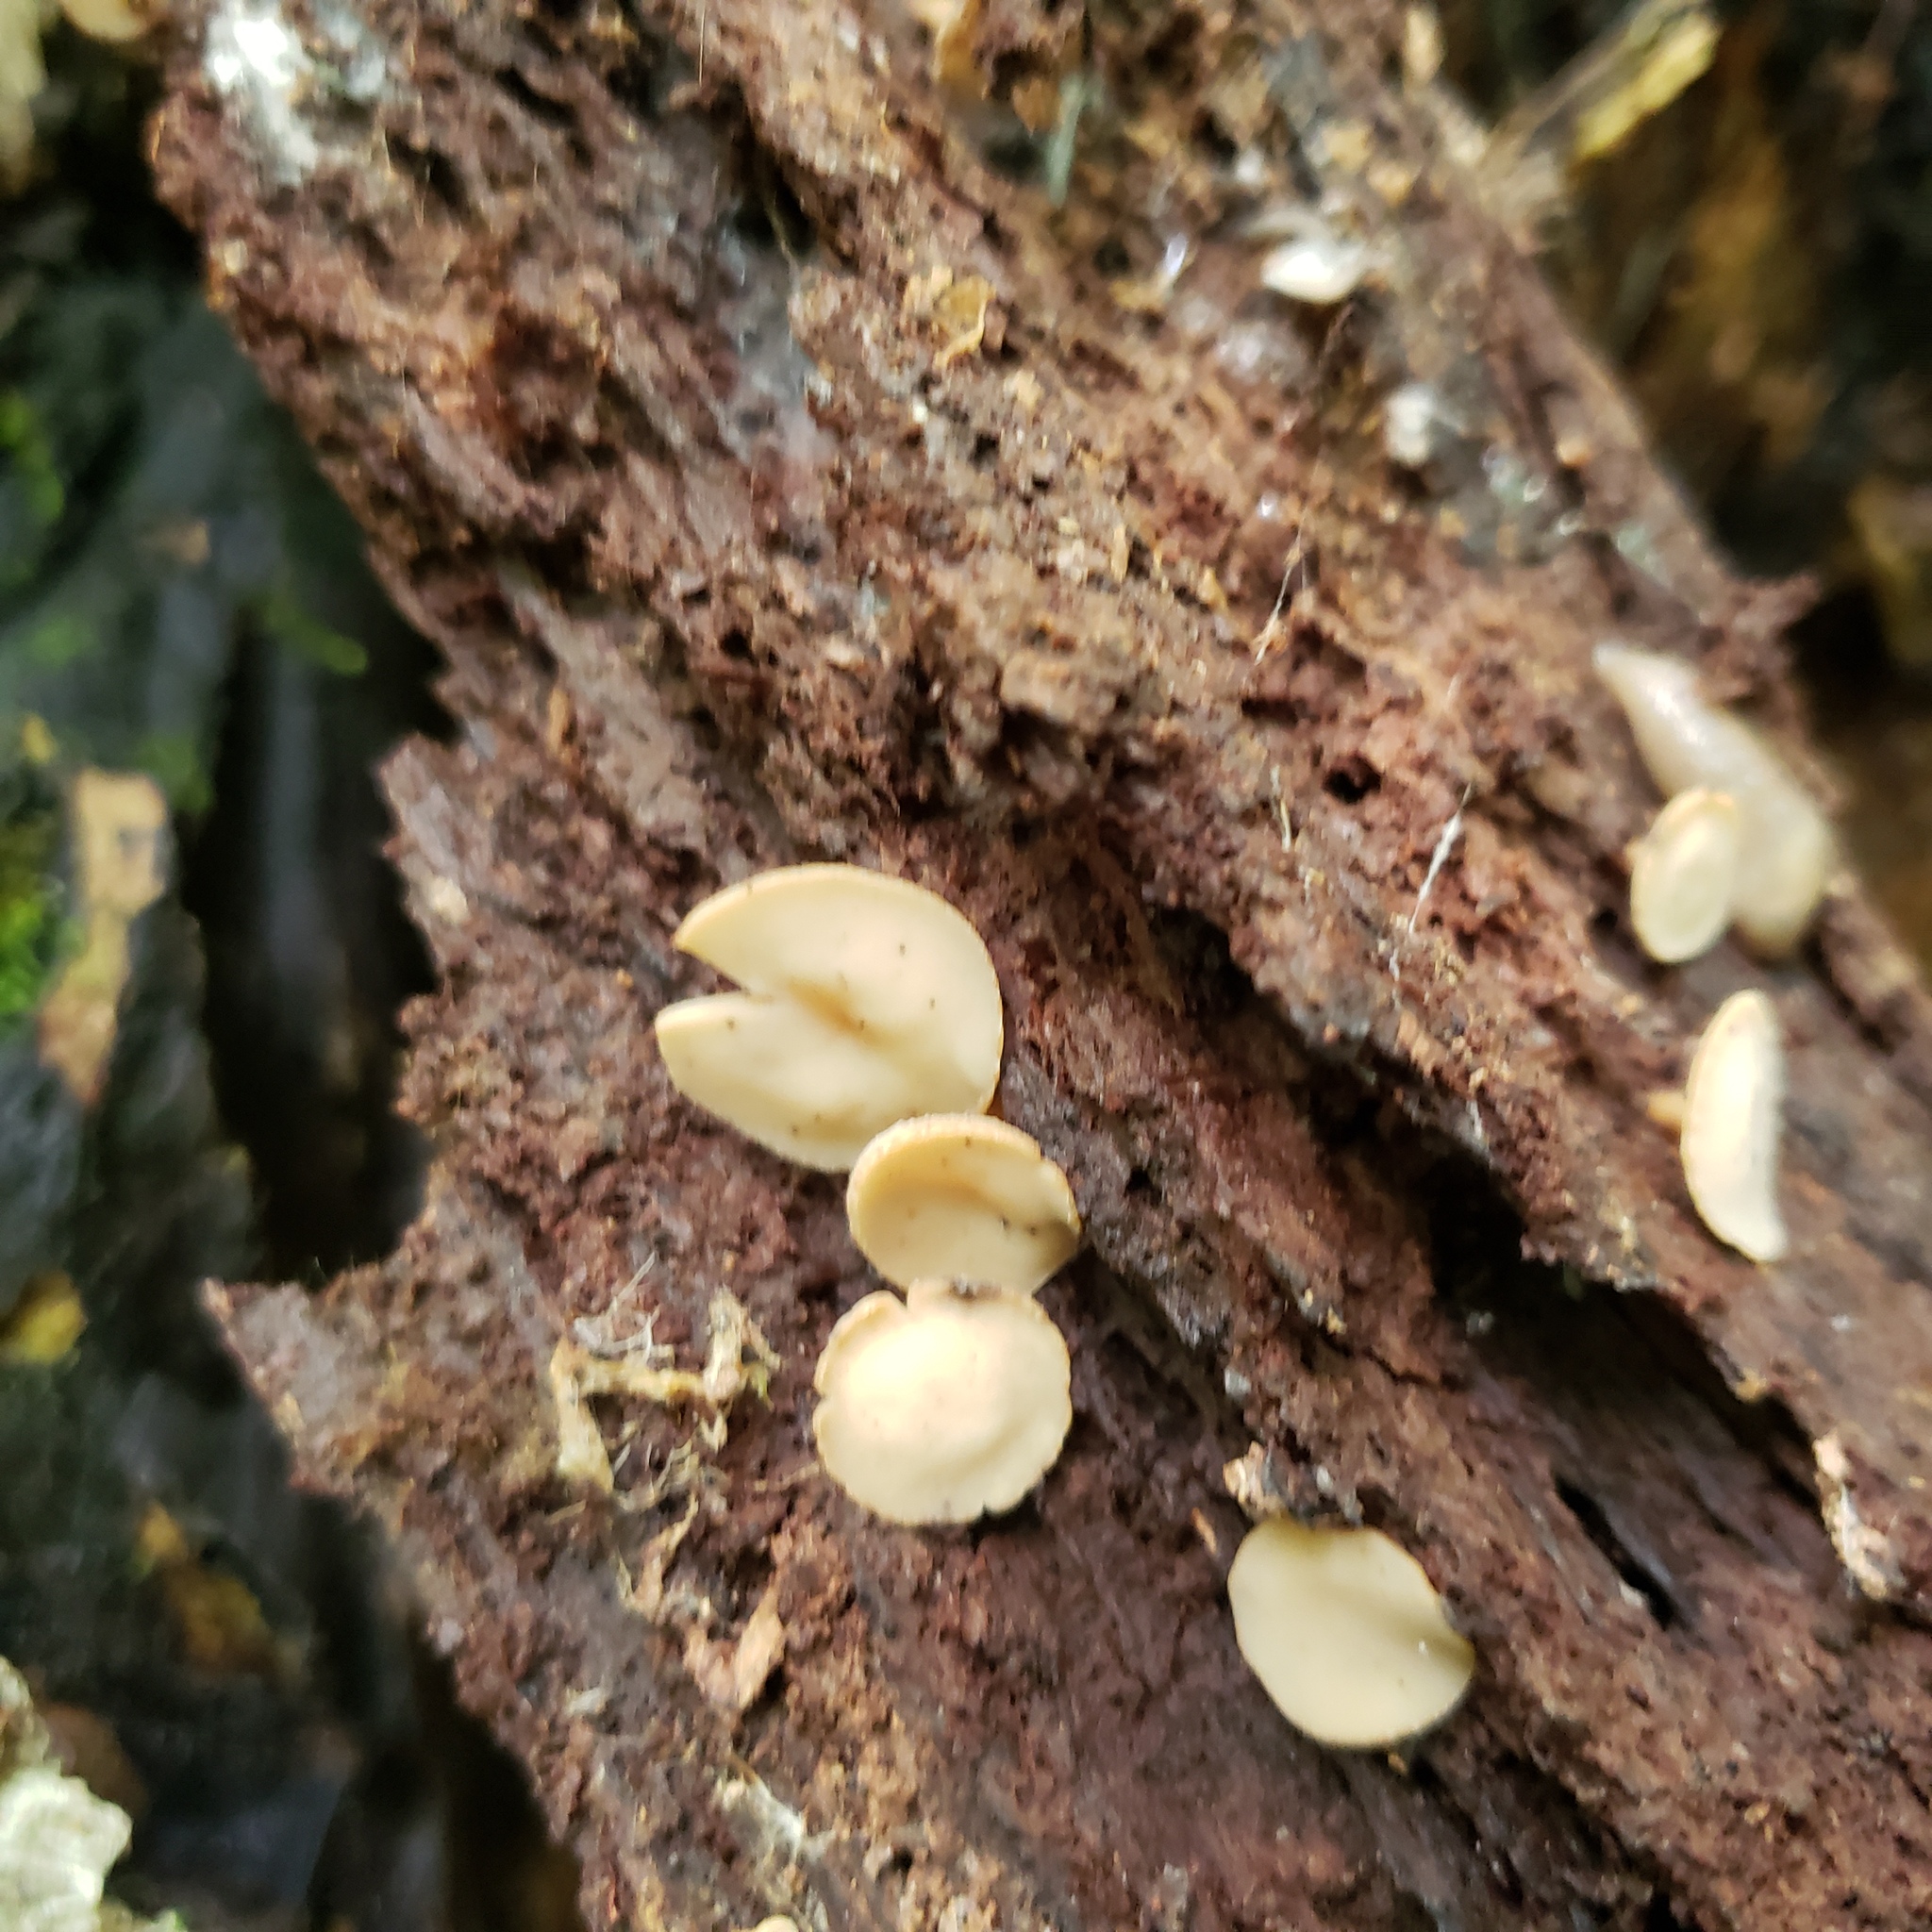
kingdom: Fungi
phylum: Ascomycota
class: Leotiomycetes
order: Helotiales
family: Helotiaceae
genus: Tatraea
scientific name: Tatraea macrospora
